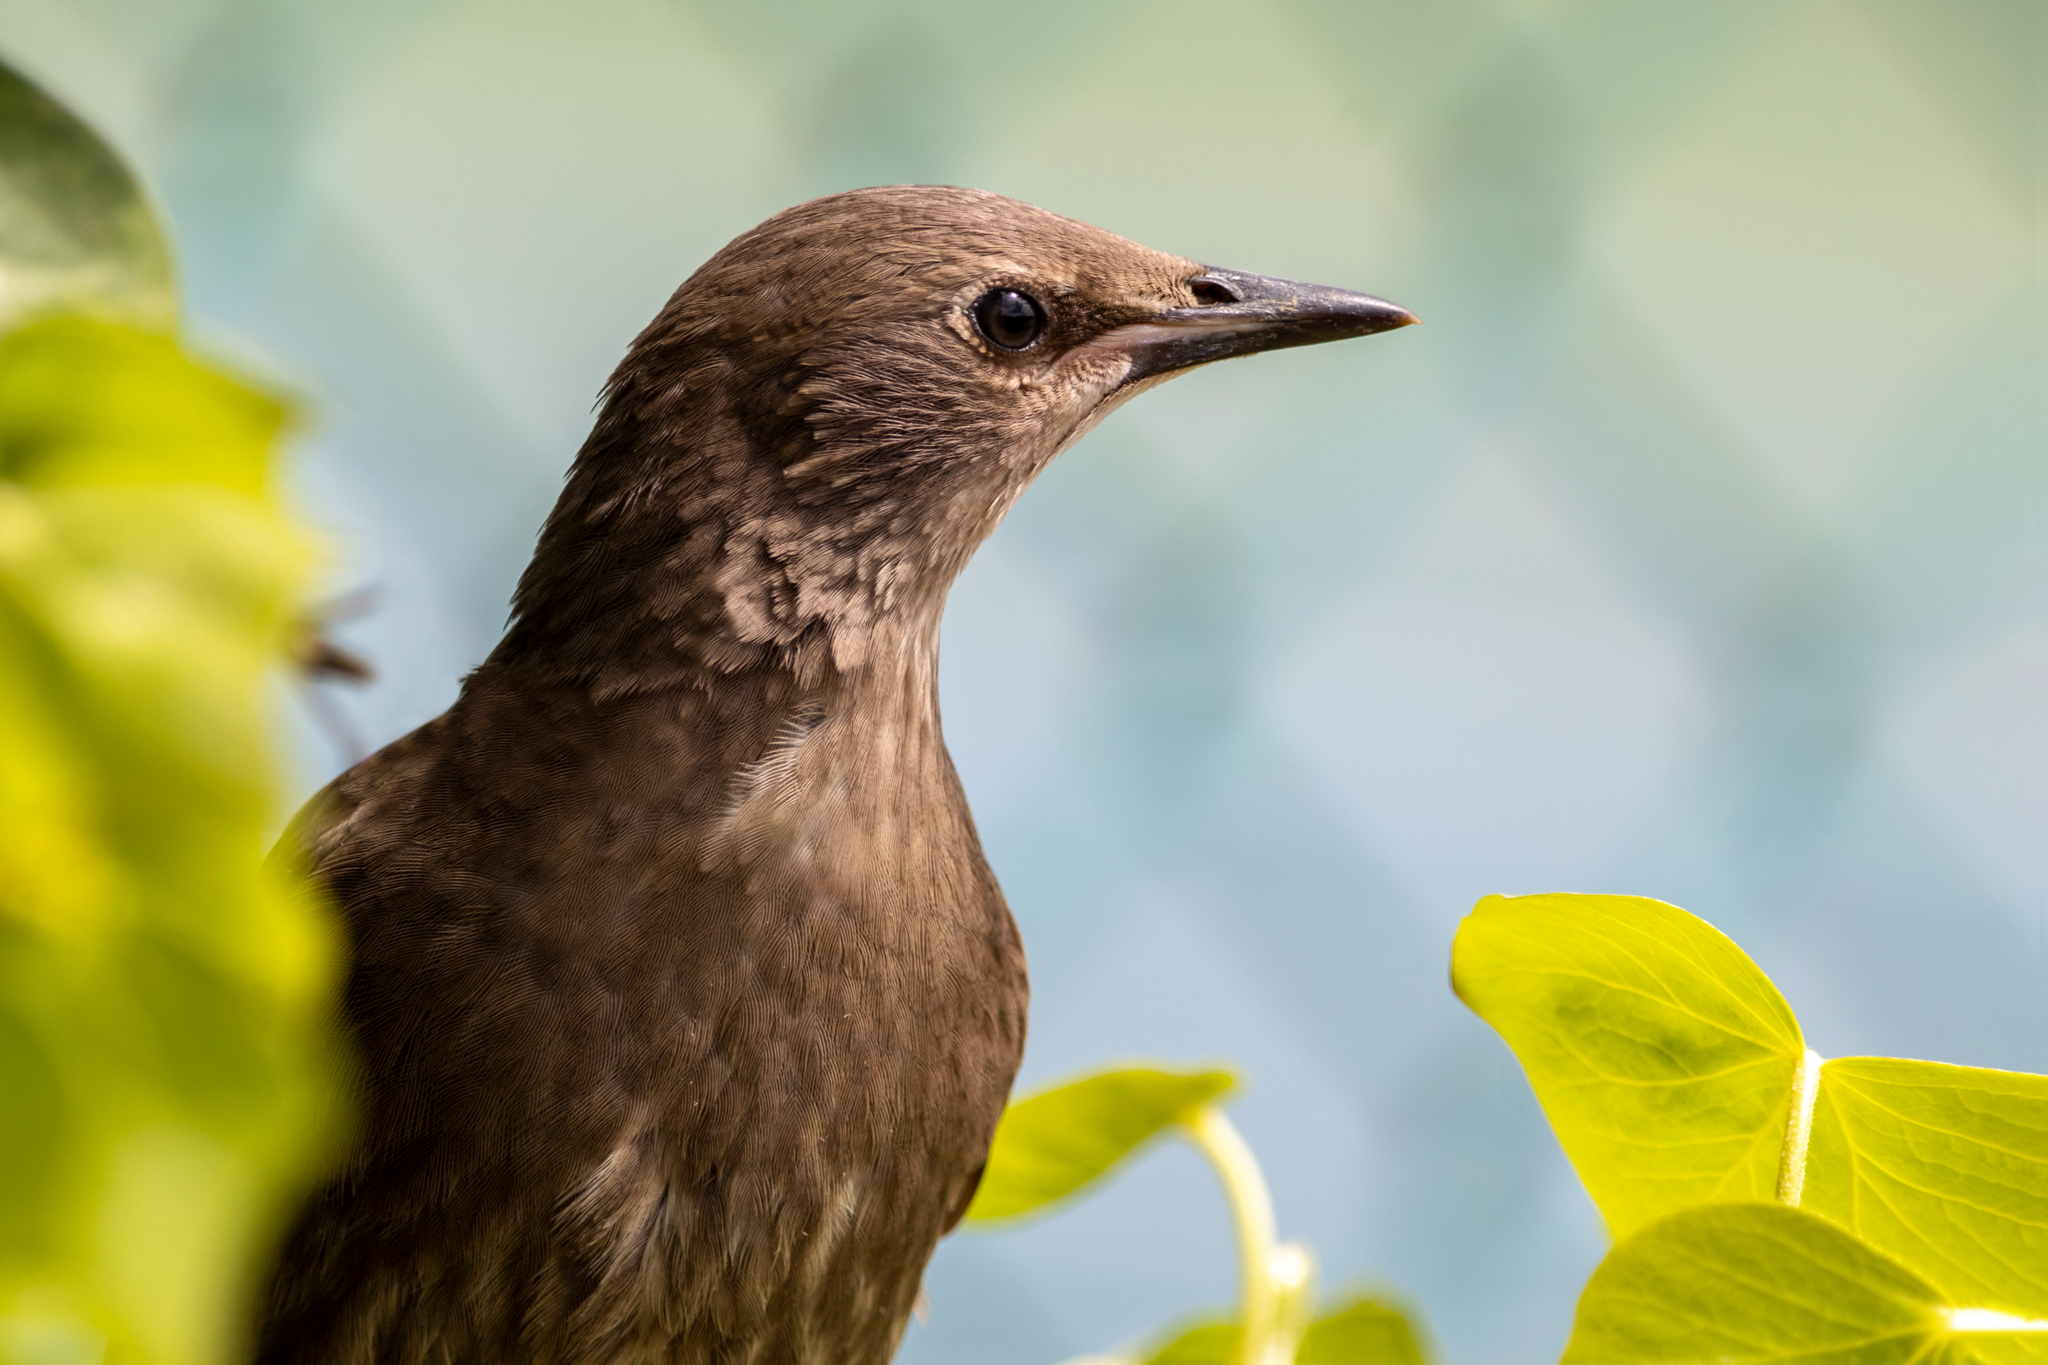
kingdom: Animalia
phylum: Chordata
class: Aves
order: Passeriformes
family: Sturnidae
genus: Sturnus
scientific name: Sturnus vulgaris
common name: Common starling
